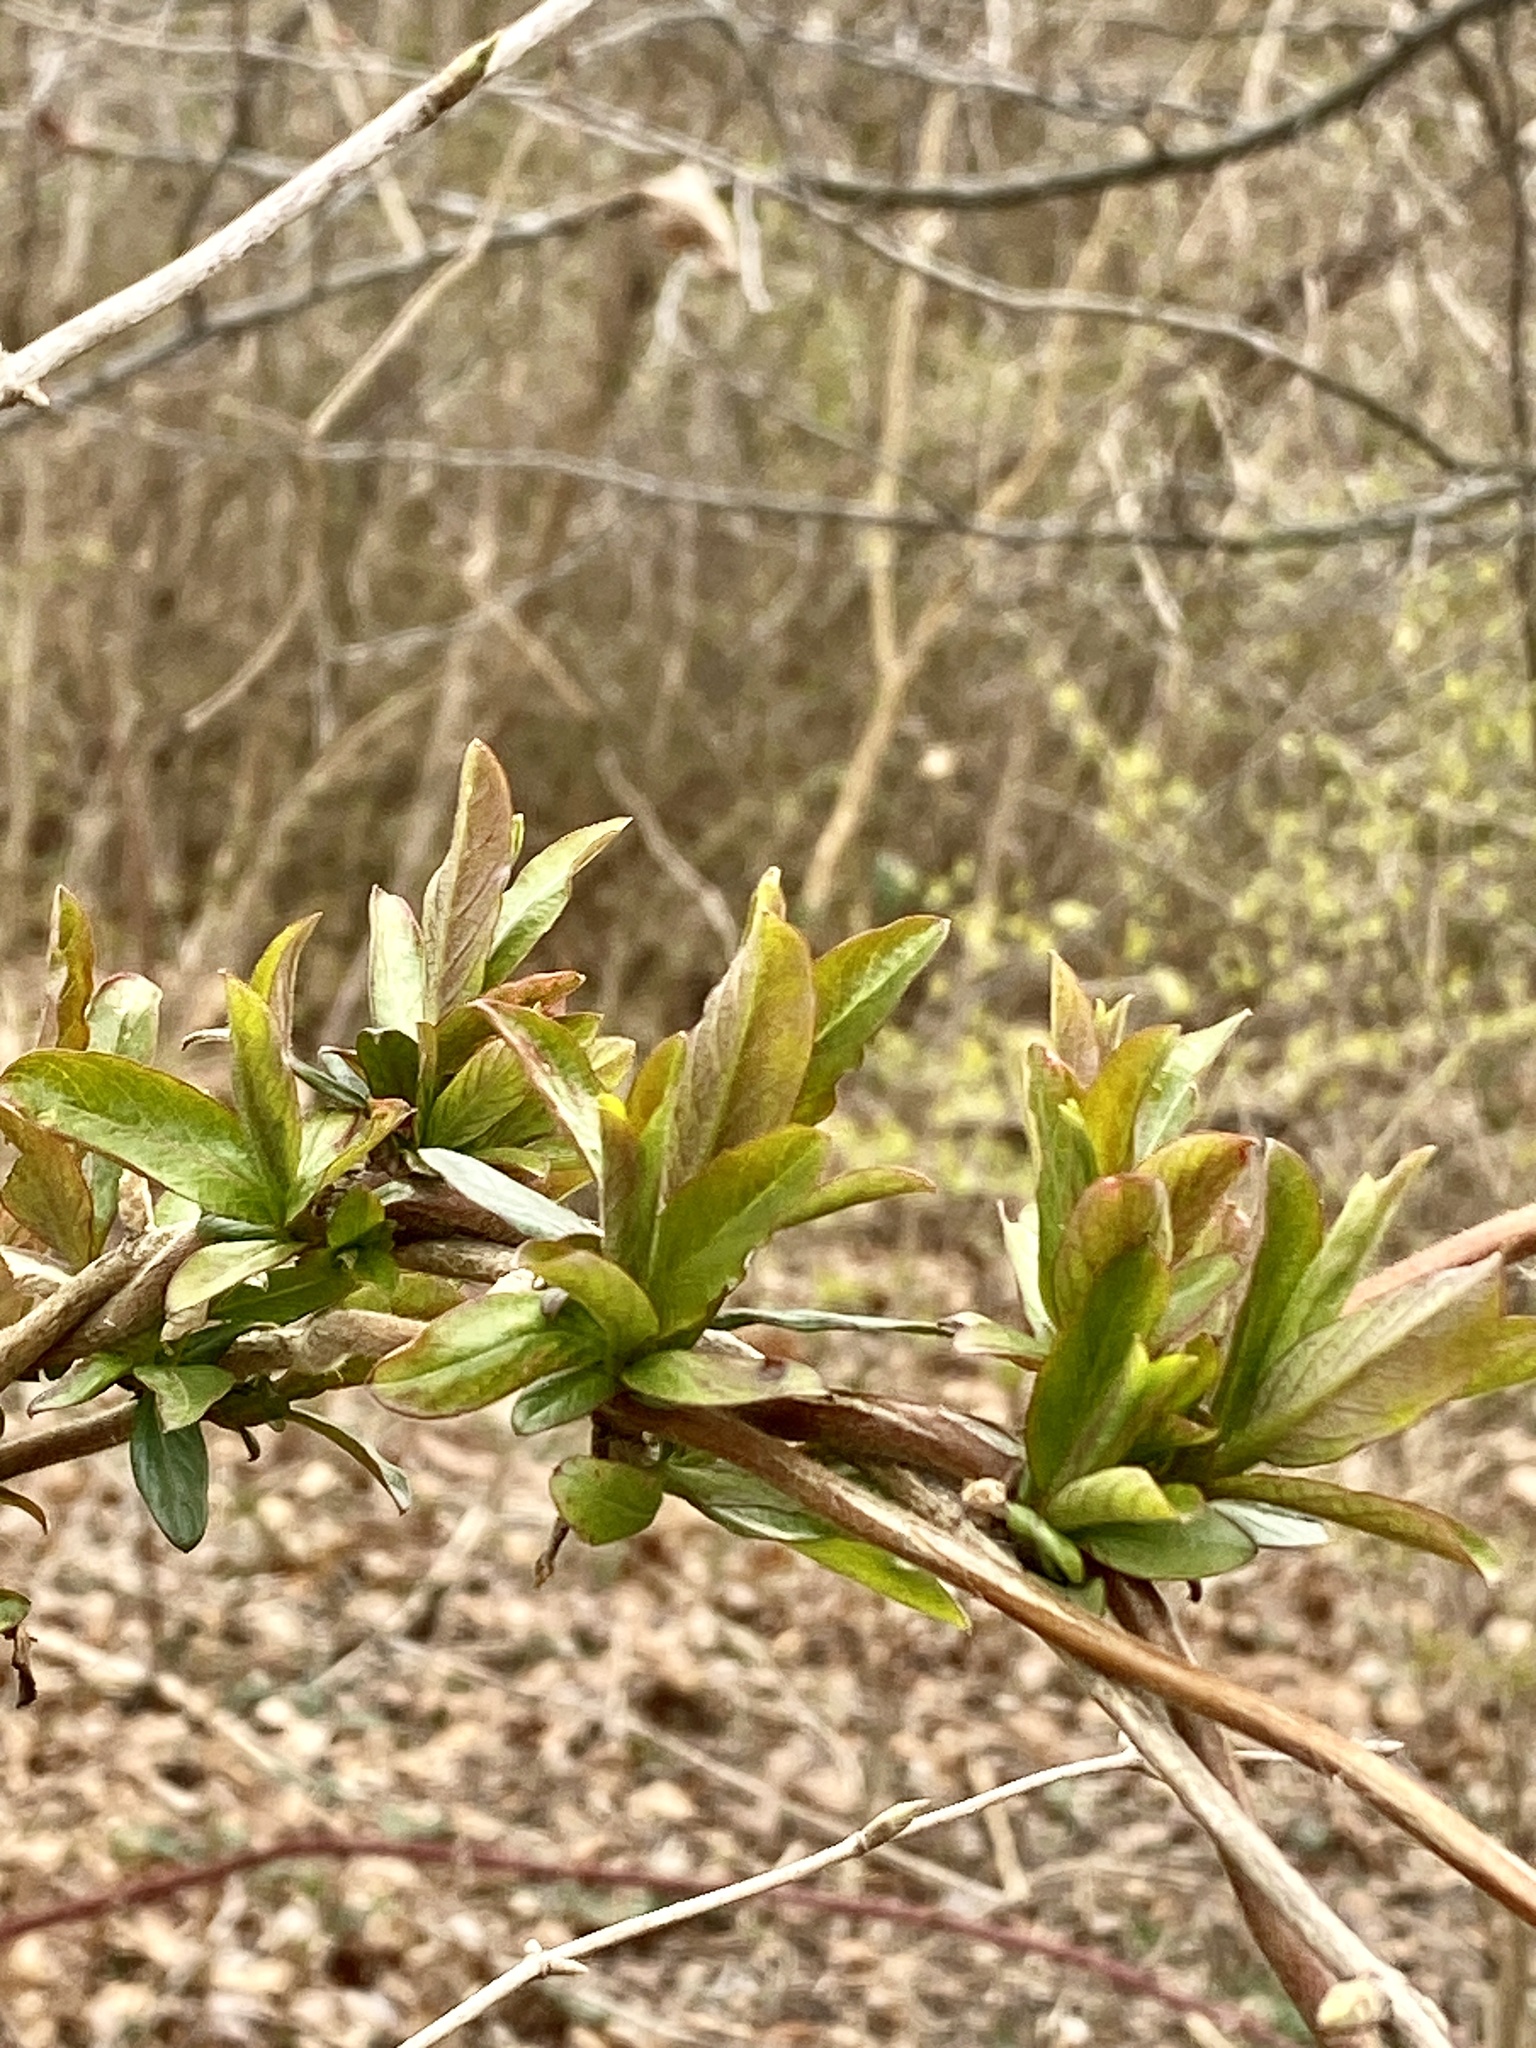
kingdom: Plantae
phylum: Tracheophyta
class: Magnoliopsida
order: Dipsacales
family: Caprifoliaceae
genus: Lonicera
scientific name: Lonicera japonica
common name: Japanese honeysuckle
